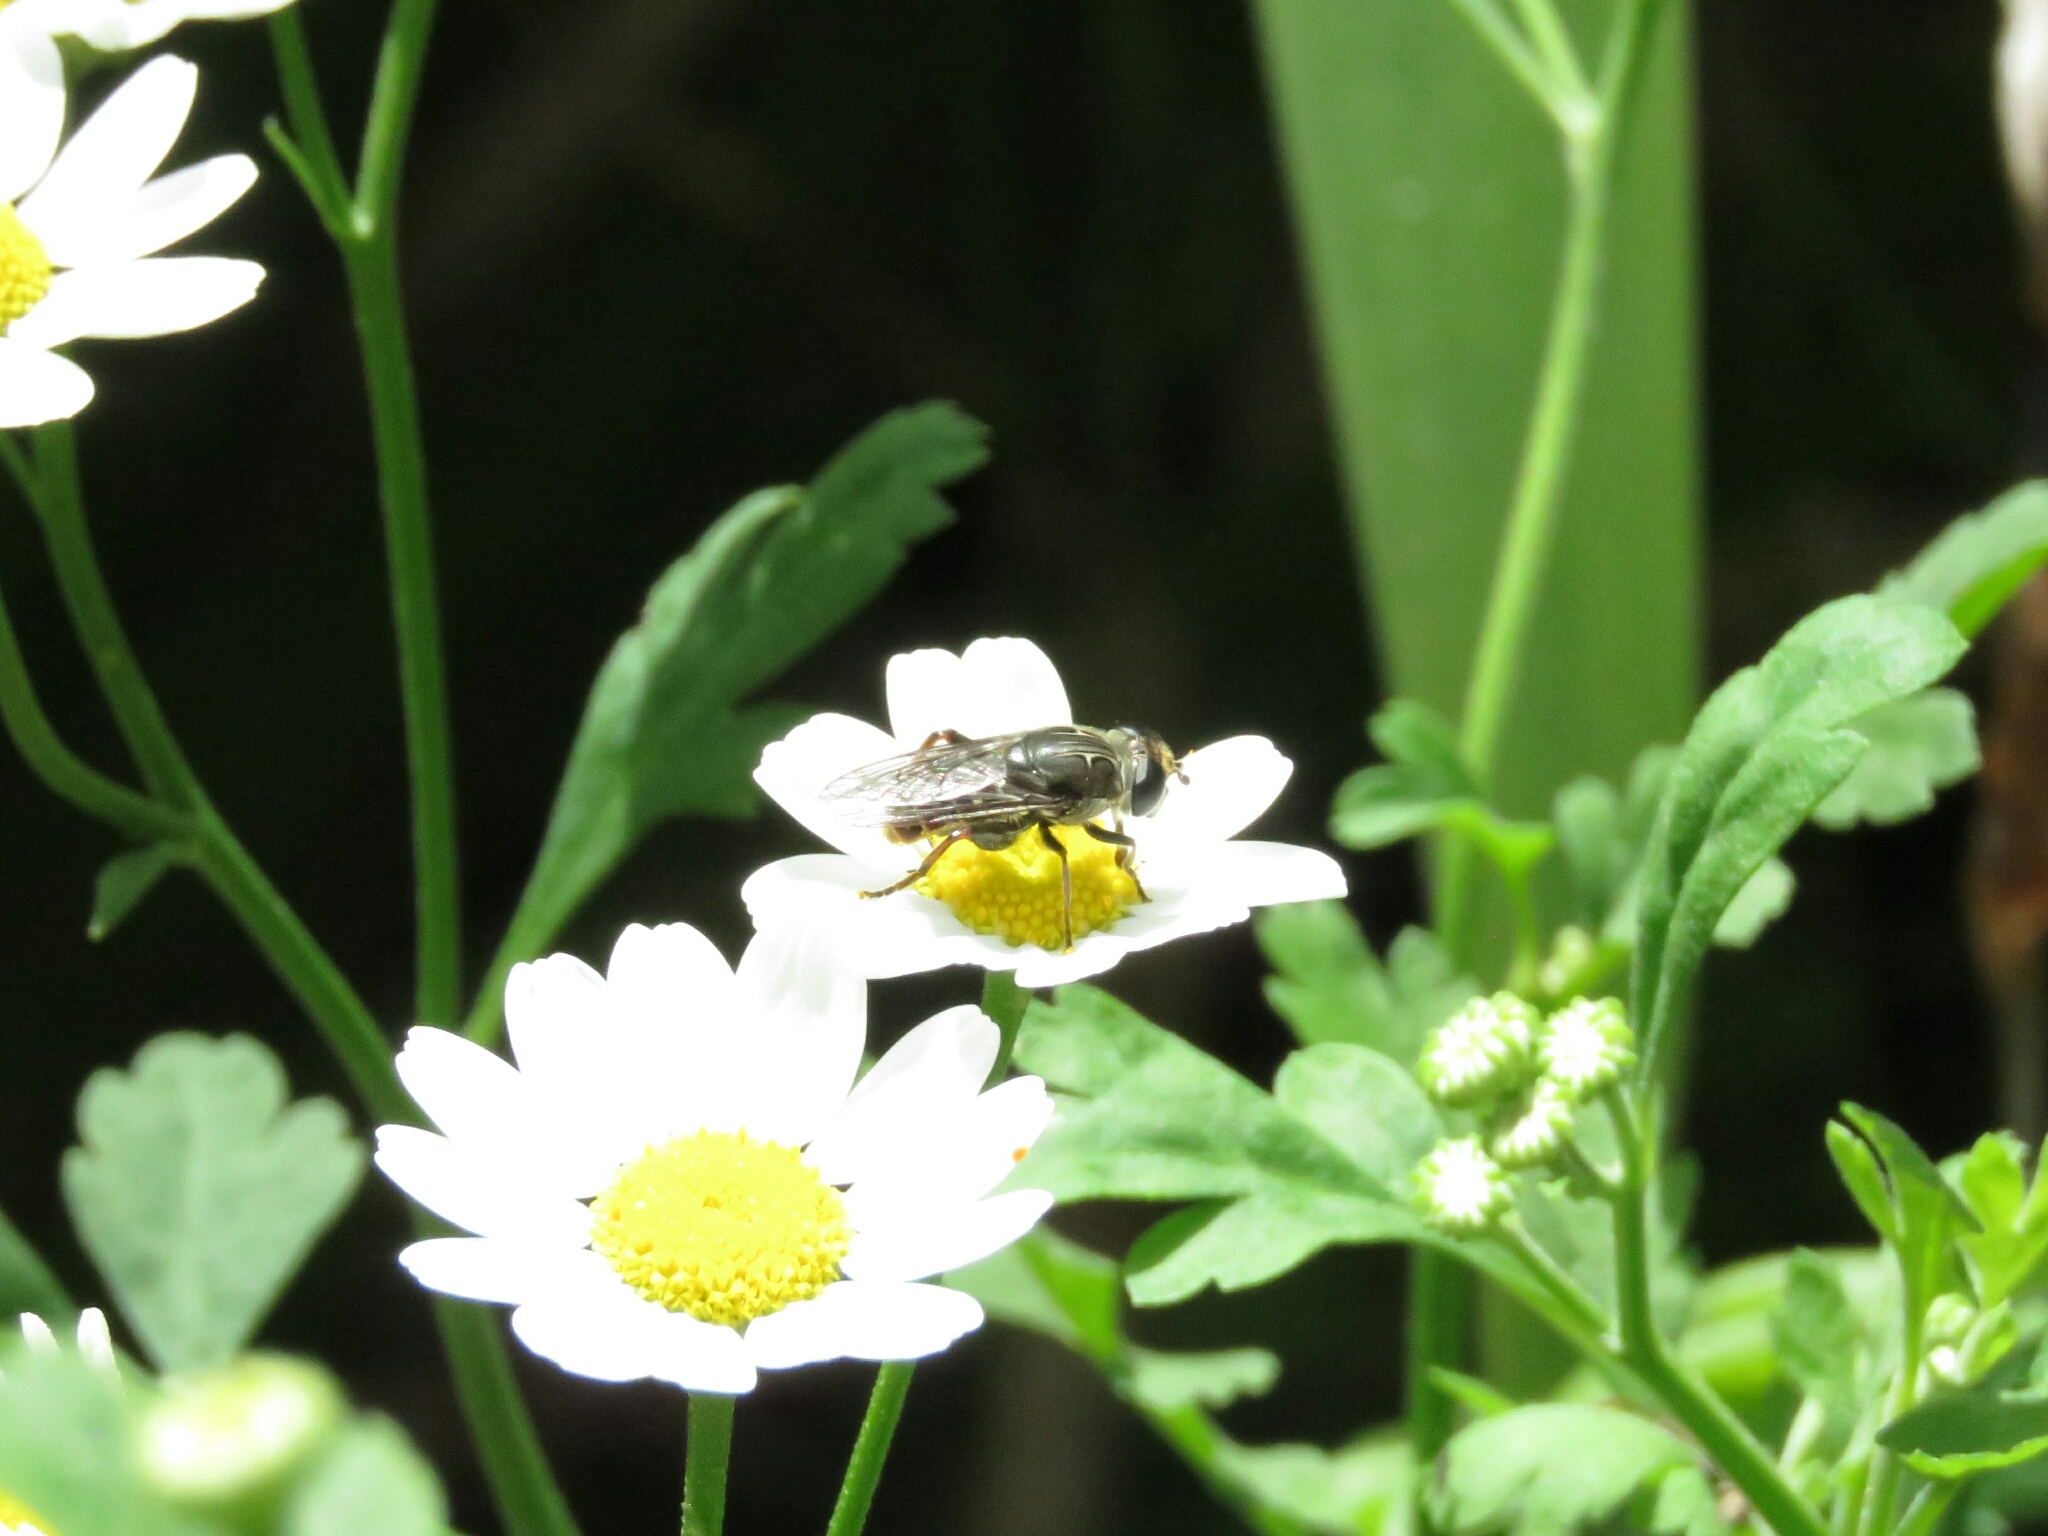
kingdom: Animalia
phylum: Arthropoda
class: Insecta
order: Diptera
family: Syrphidae
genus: Asemosyrphus
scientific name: Asemosyrphus
